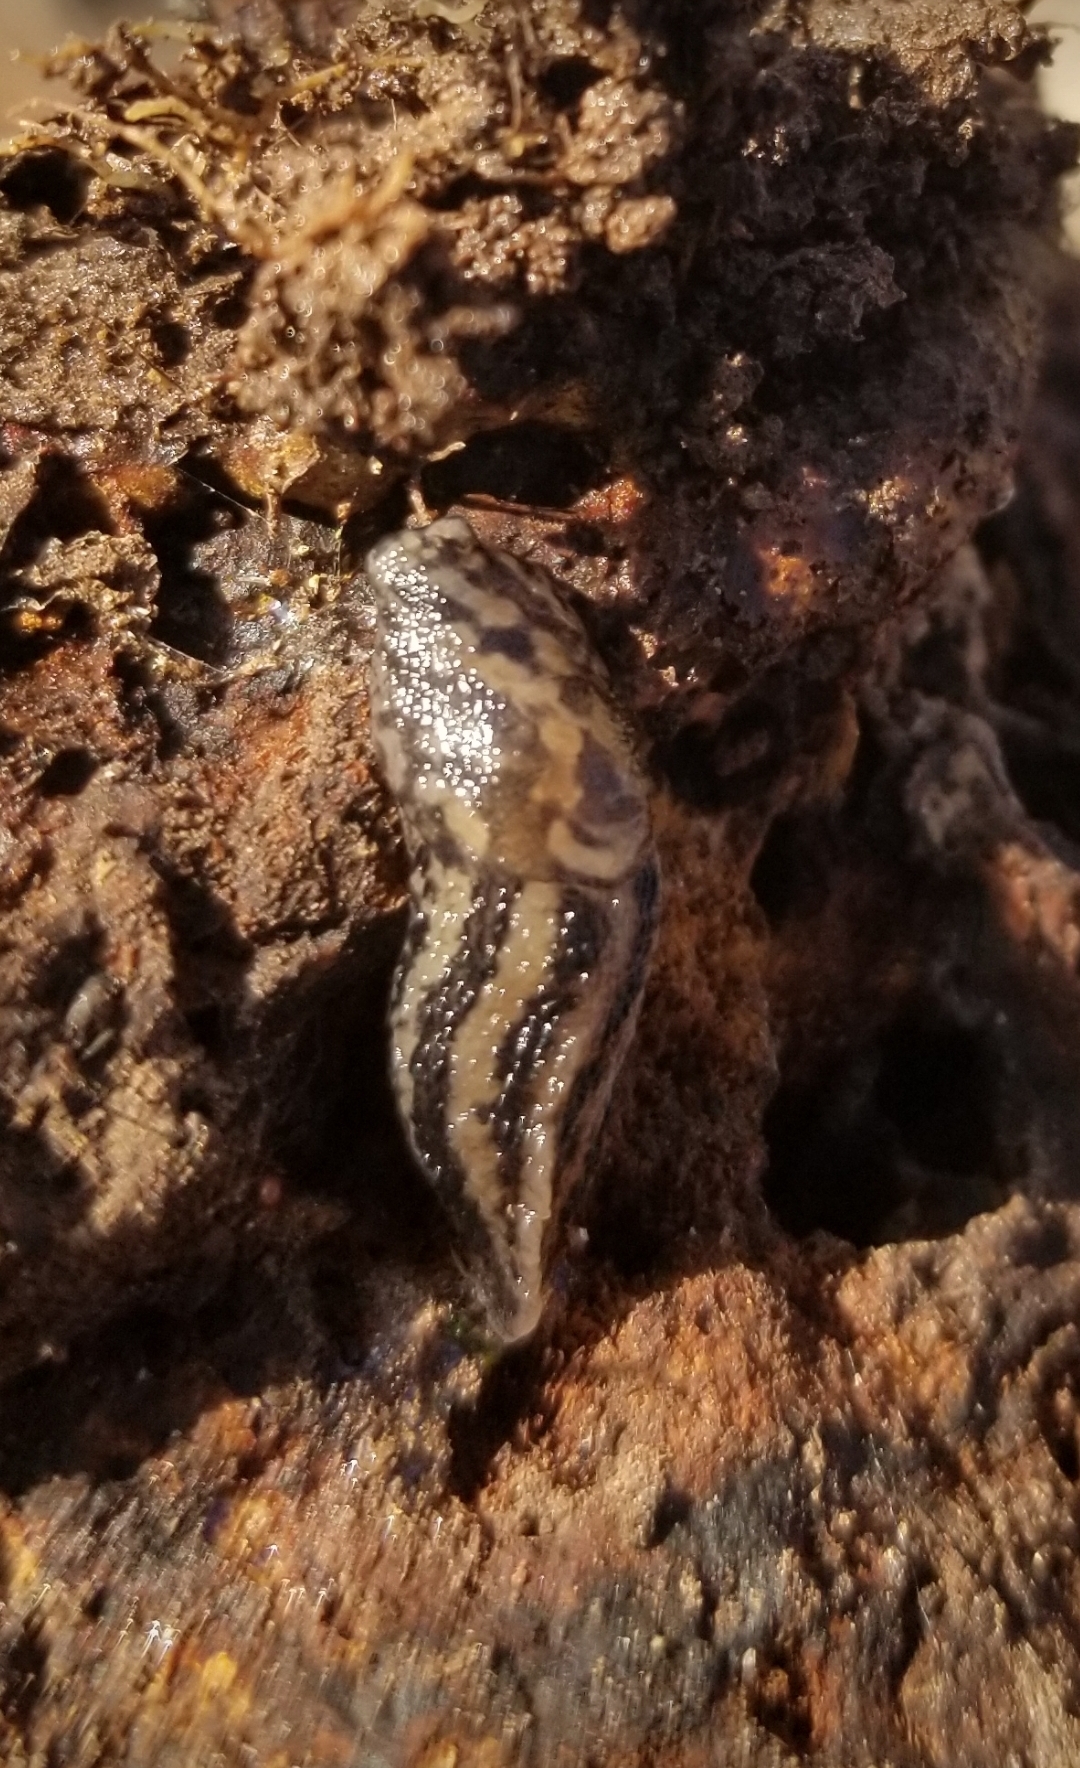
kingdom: Animalia
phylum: Mollusca
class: Gastropoda
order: Stylommatophora
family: Limacidae
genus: Limax
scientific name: Limax maximus
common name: Great grey slug
